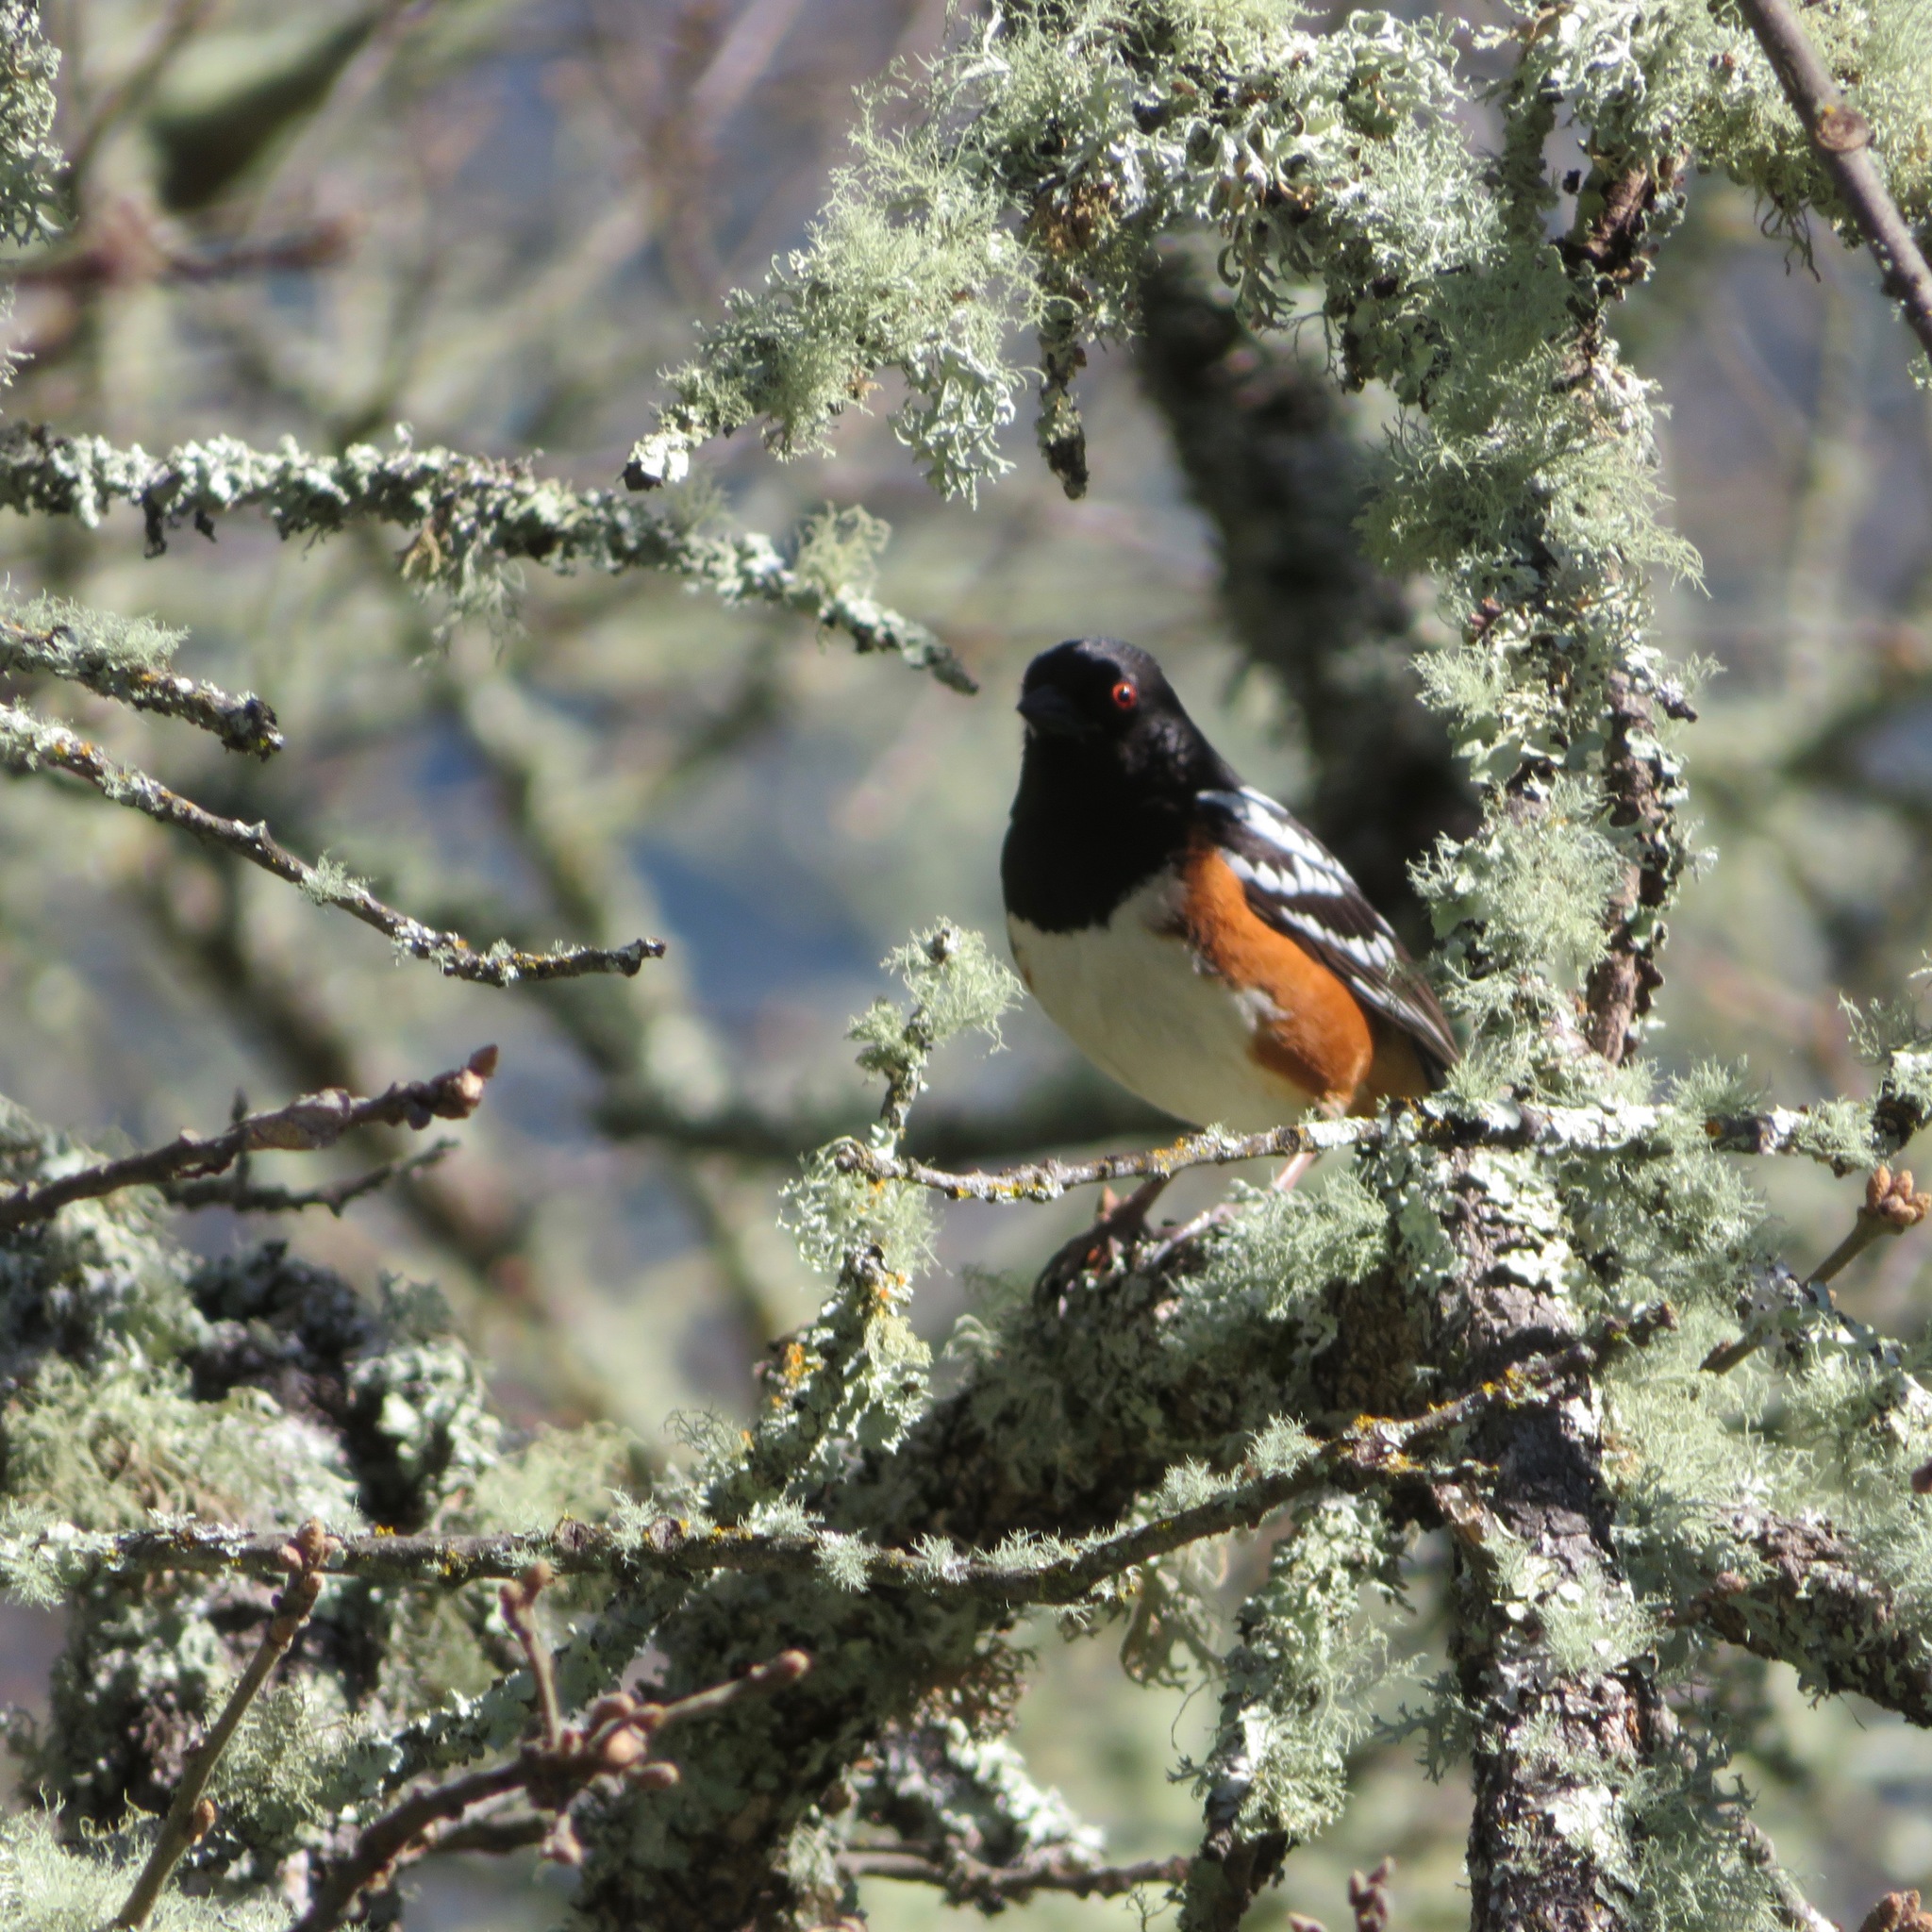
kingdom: Animalia
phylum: Chordata
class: Aves
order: Passeriformes
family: Passerellidae
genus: Pipilo
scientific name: Pipilo maculatus
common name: Spotted towhee
